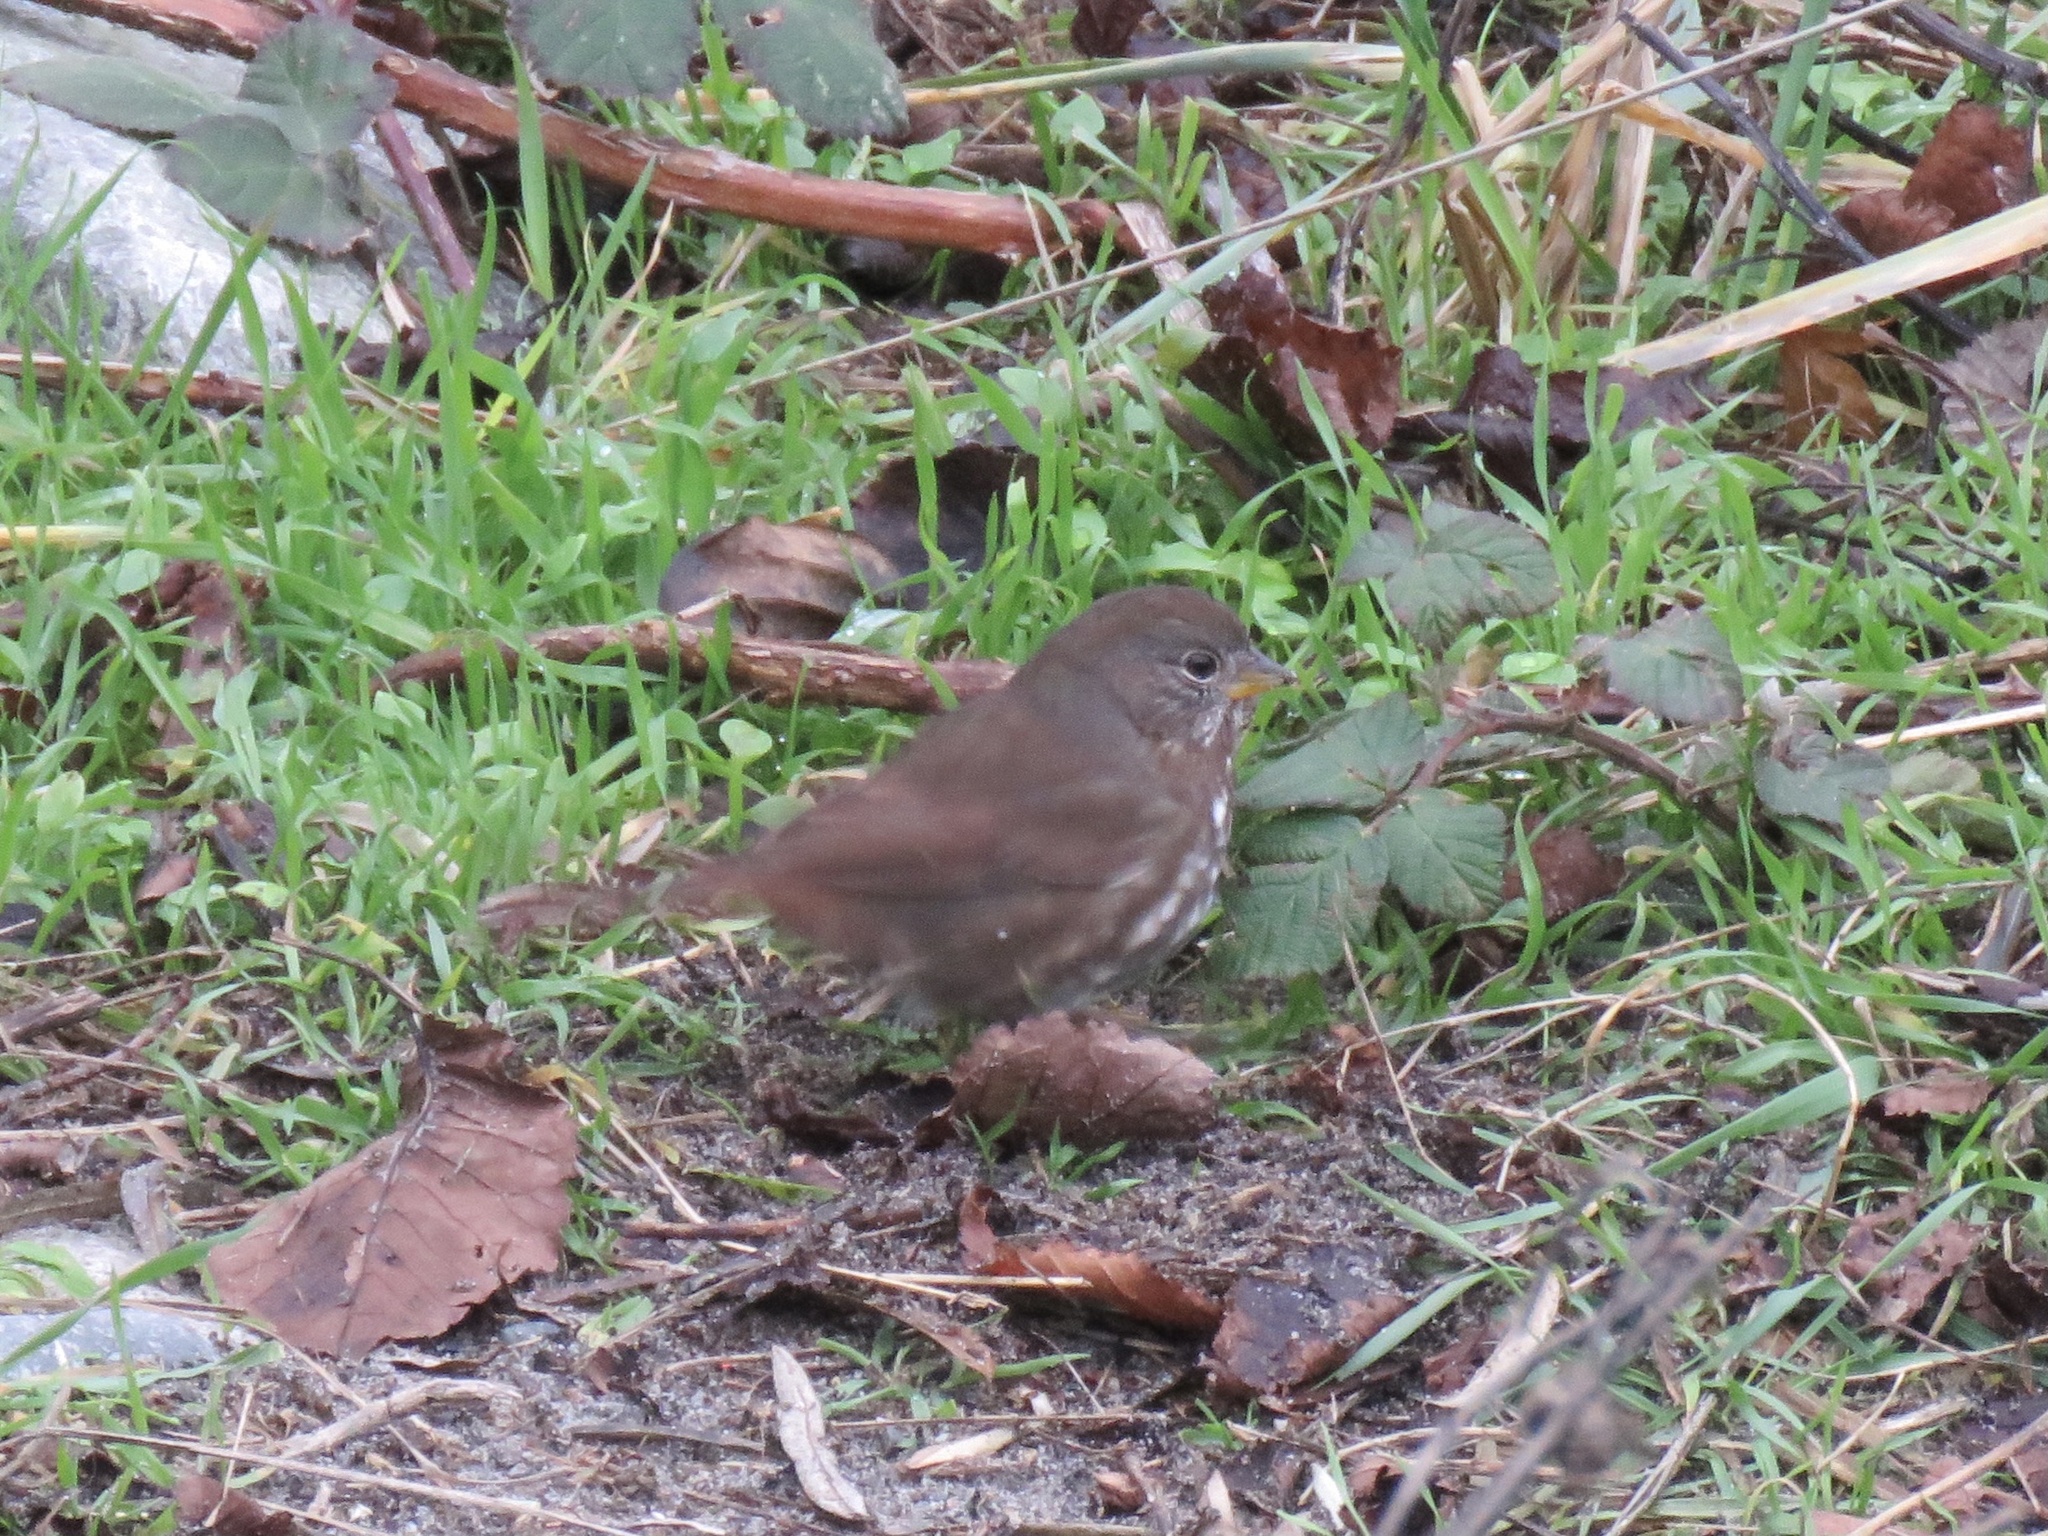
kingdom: Animalia
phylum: Chordata
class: Aves
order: Passeriformes
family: Passerellidae
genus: Passerella
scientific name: Passerella iliaca
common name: Fox sparrow
